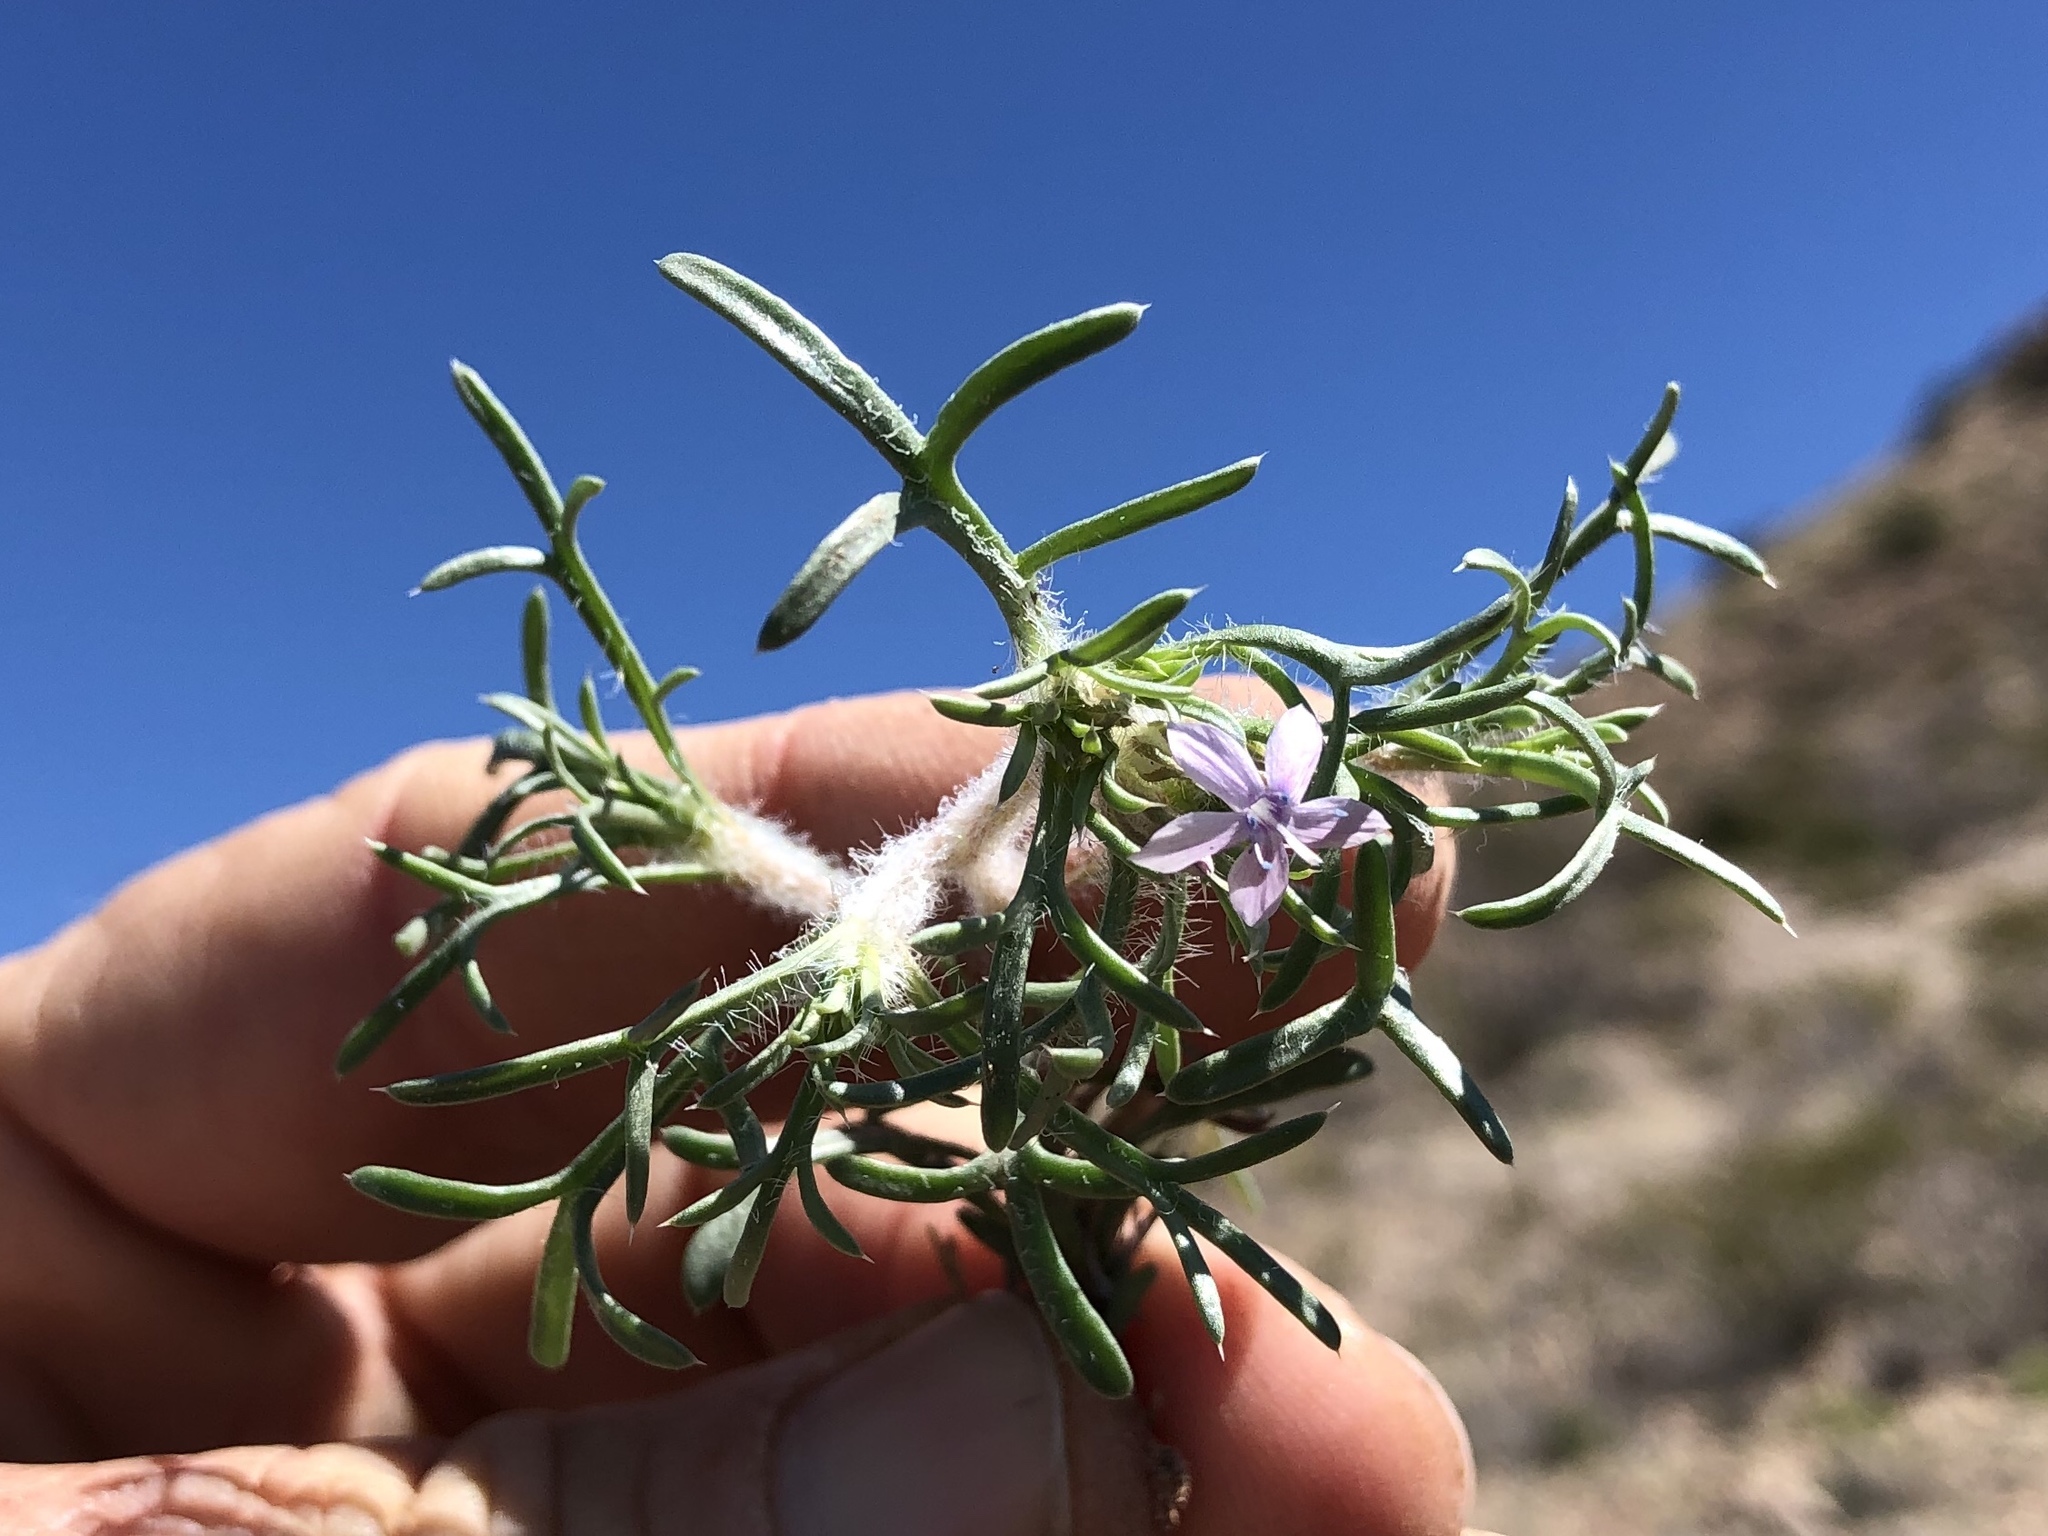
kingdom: Plantae
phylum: Tracheophyta
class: Magnoliopsida
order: Ericales
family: Polemoniaceae
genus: Ipomopsis
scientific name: Ipomopsis pumila
